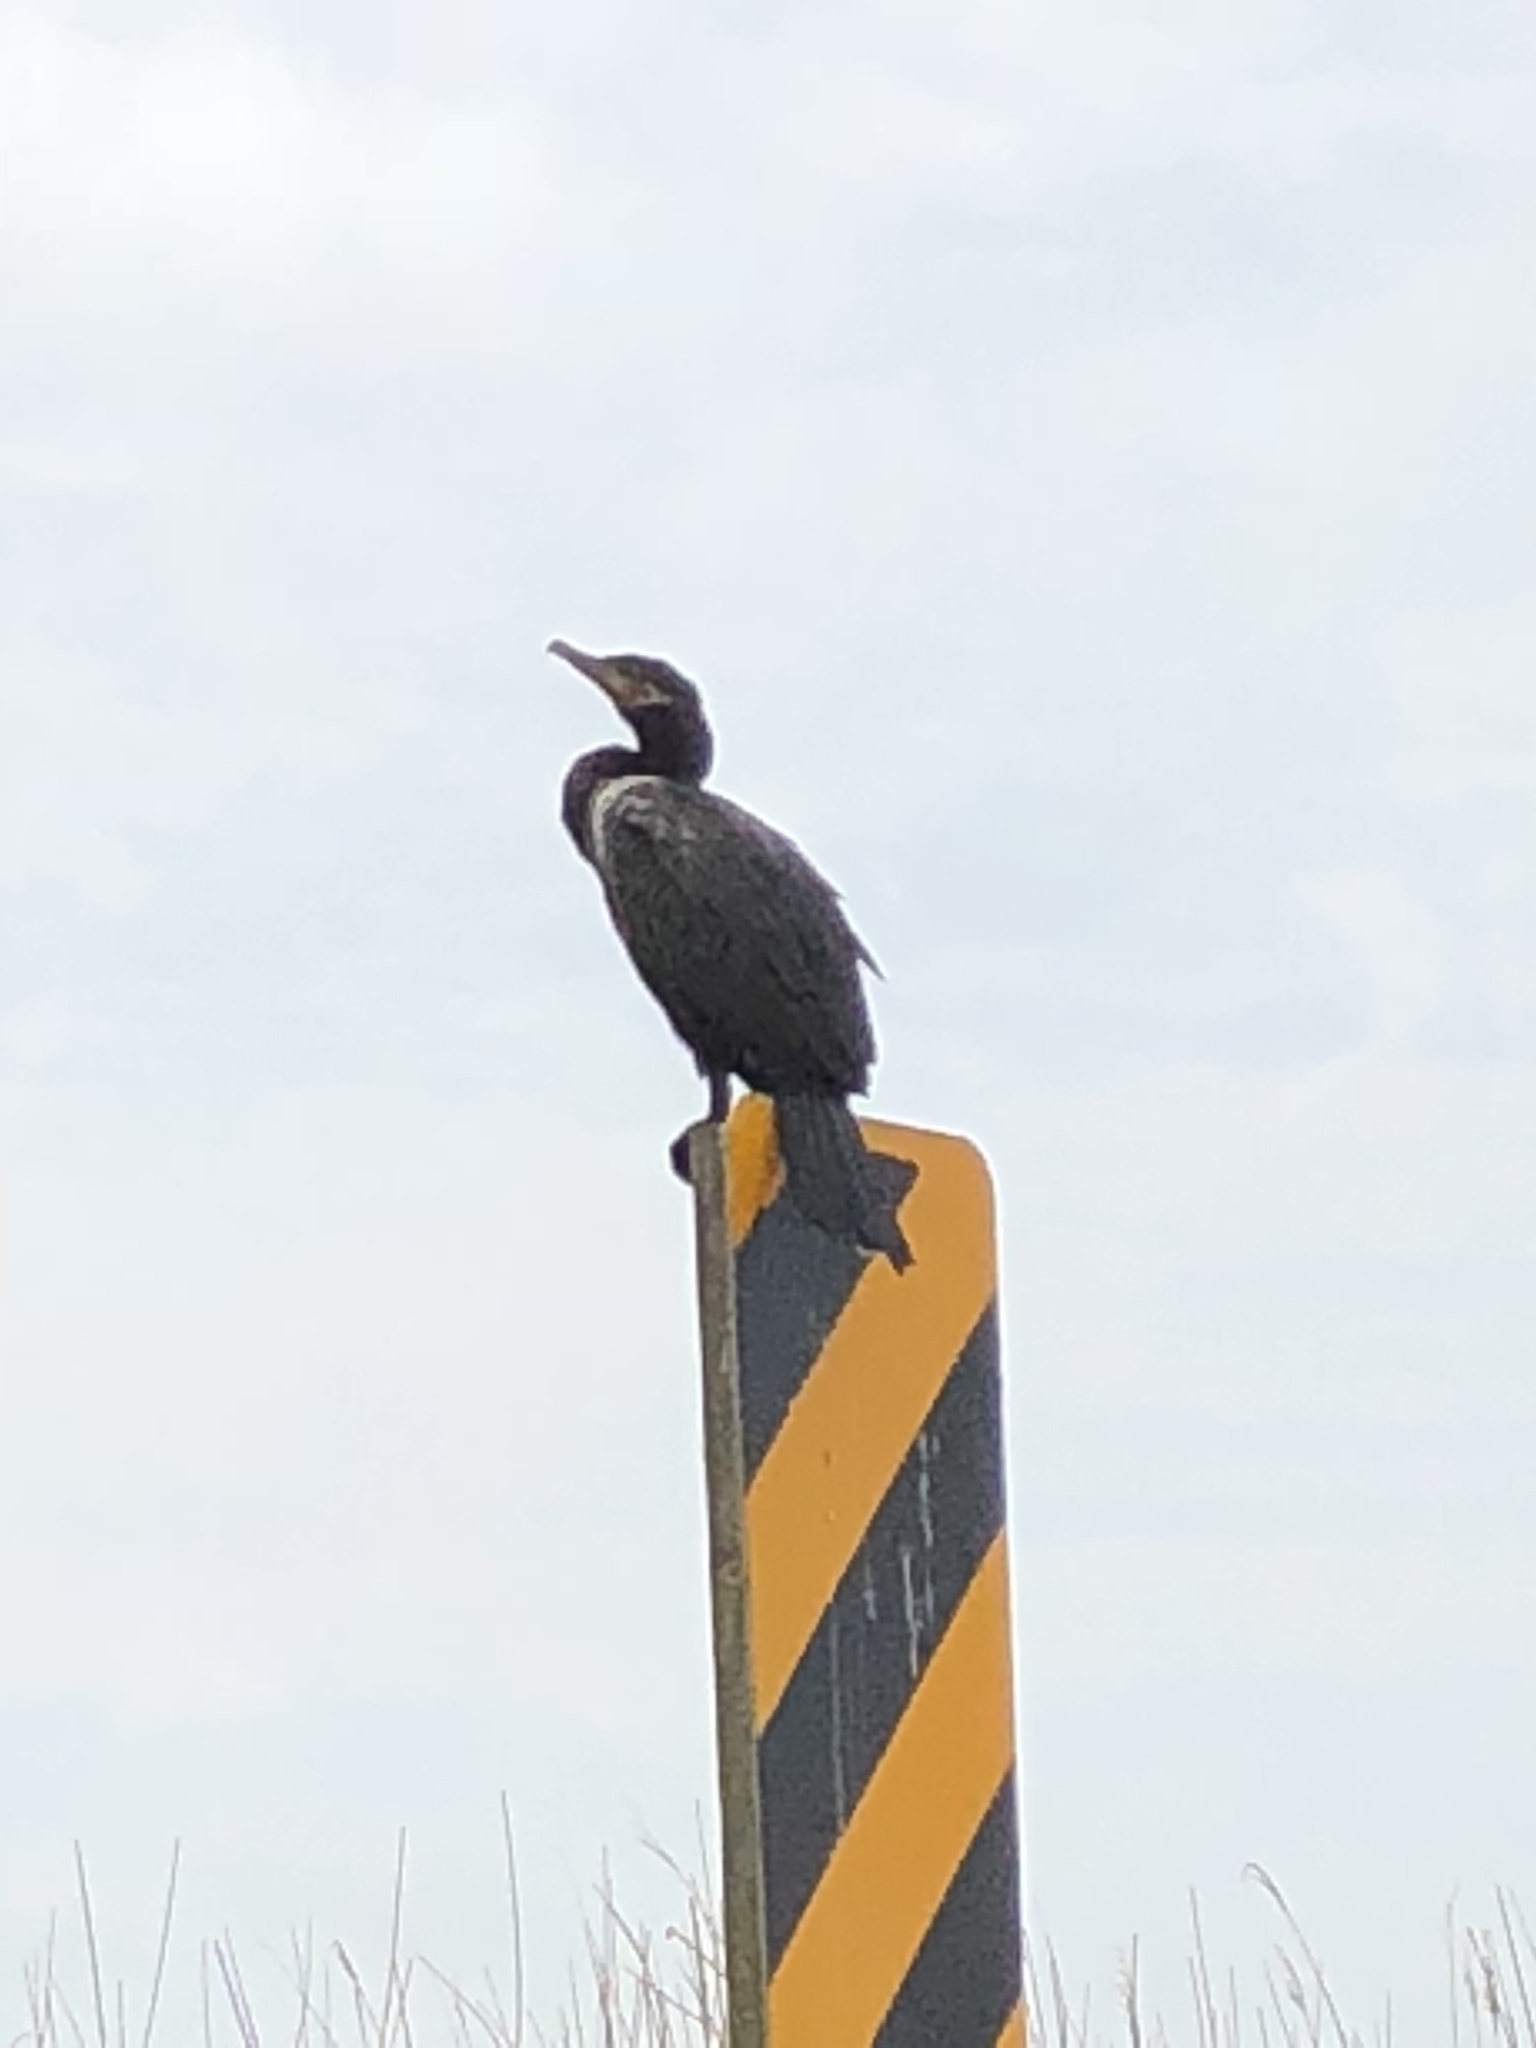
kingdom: Animalia
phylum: Chordata
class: Aves
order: Suliformes
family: Phalacrocoracidae
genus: Phalacrocorax
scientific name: Phalacrocorax brasilianus
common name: Neotropic cormorant
